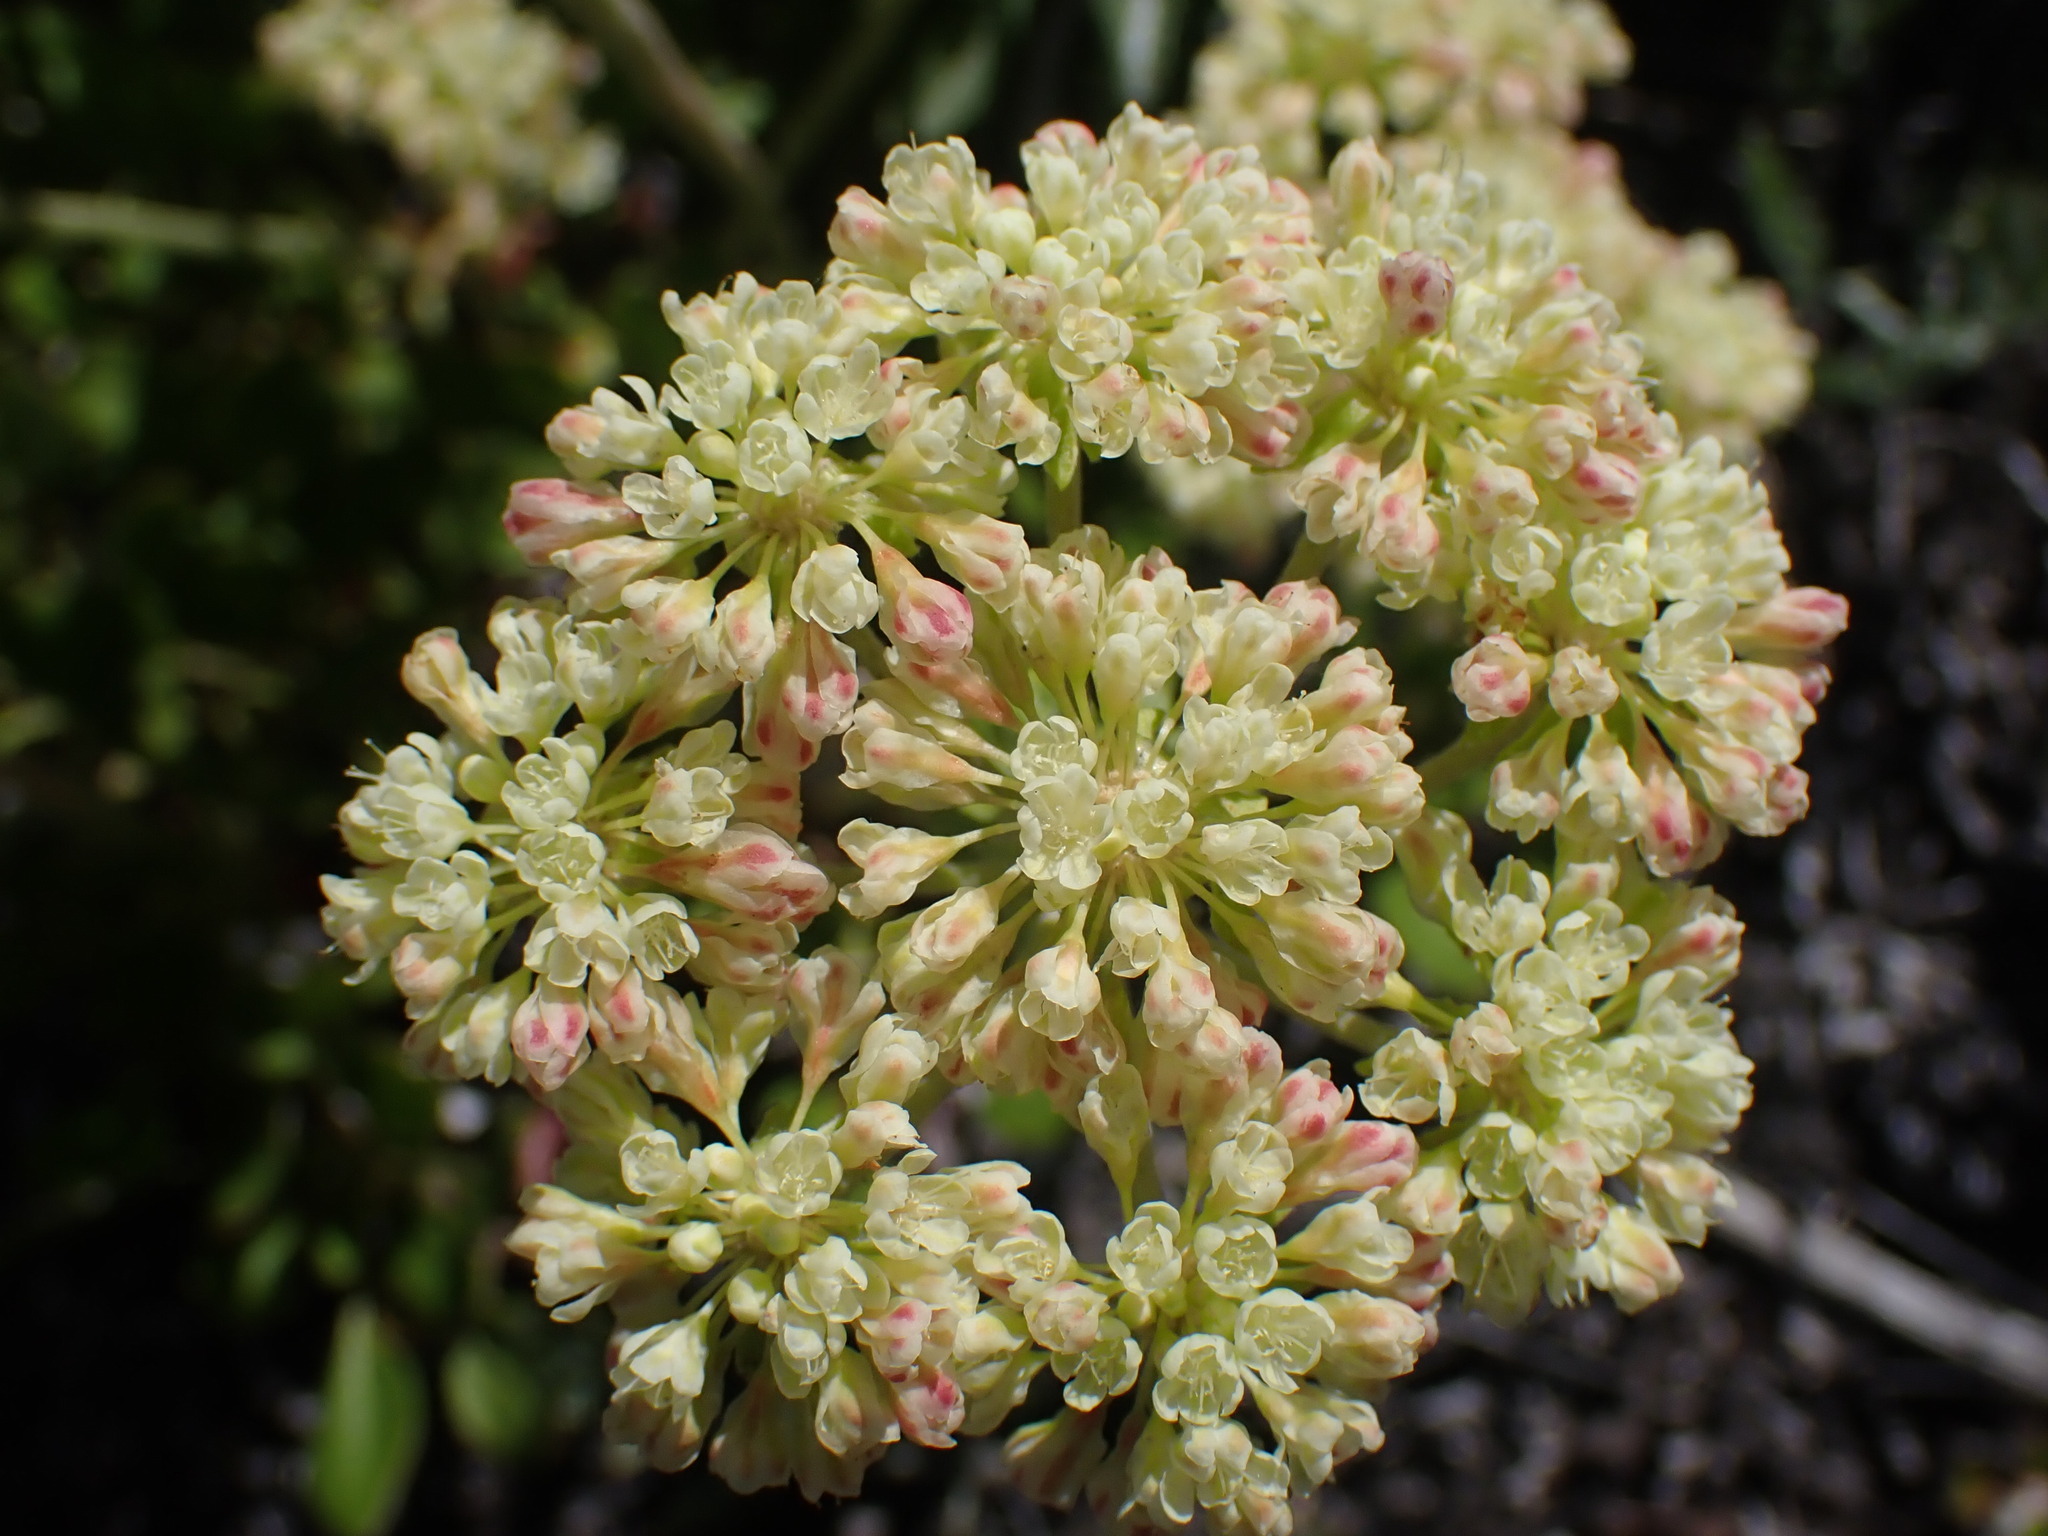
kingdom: Plantae
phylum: Tracheophyta
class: Magnoliopsida
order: Caryophyllales
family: Polygonaceae
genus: Eriogonum
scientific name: Eriogonum umbellatum
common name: Sulfur-buckwheat
